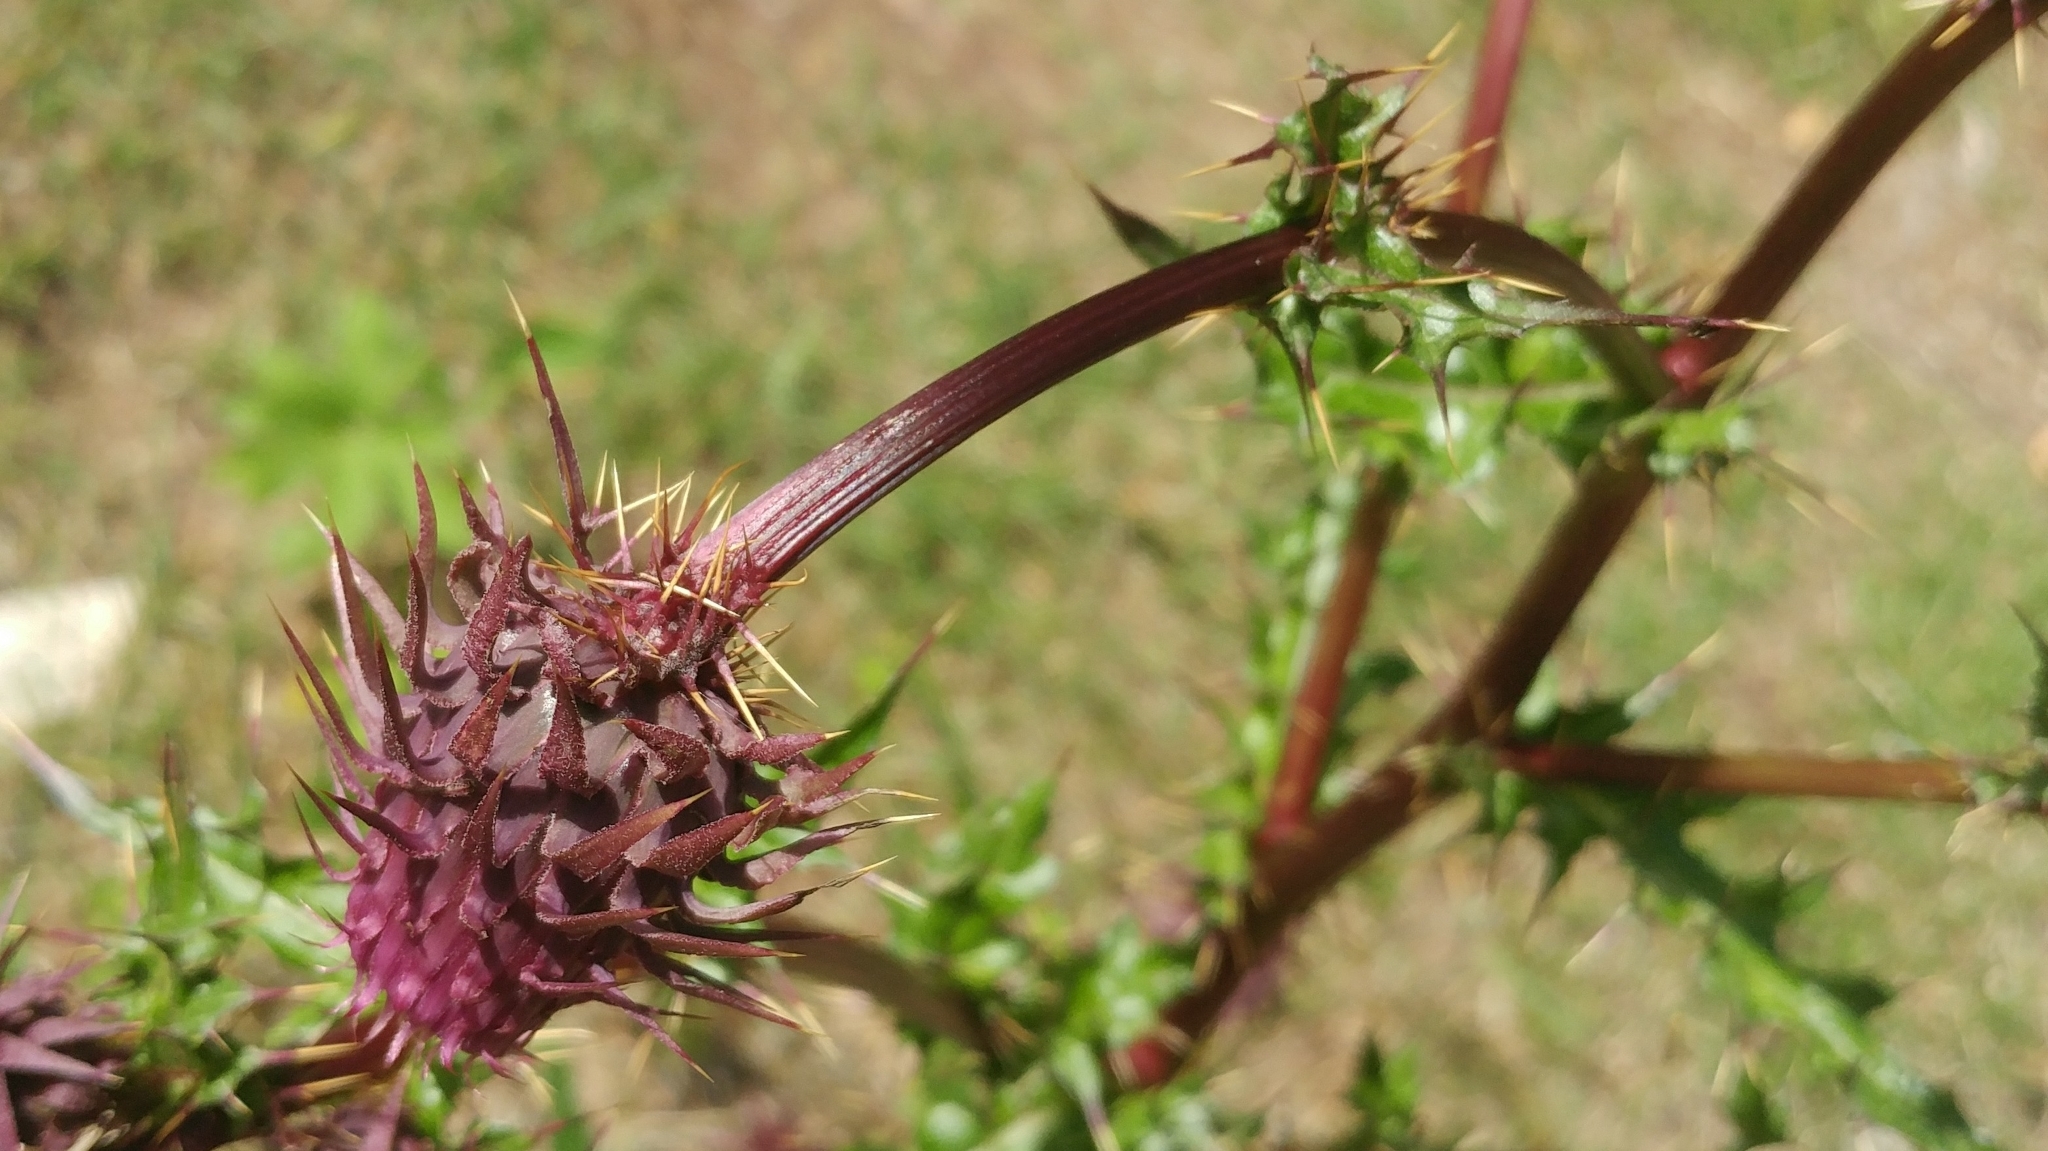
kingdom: Plantae
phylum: Tracheophyta
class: Magnoliopsida
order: Asterales
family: Asteraceae
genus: Cirsium
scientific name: Cirsium vinaceum
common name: Sacramento mountain thistle
